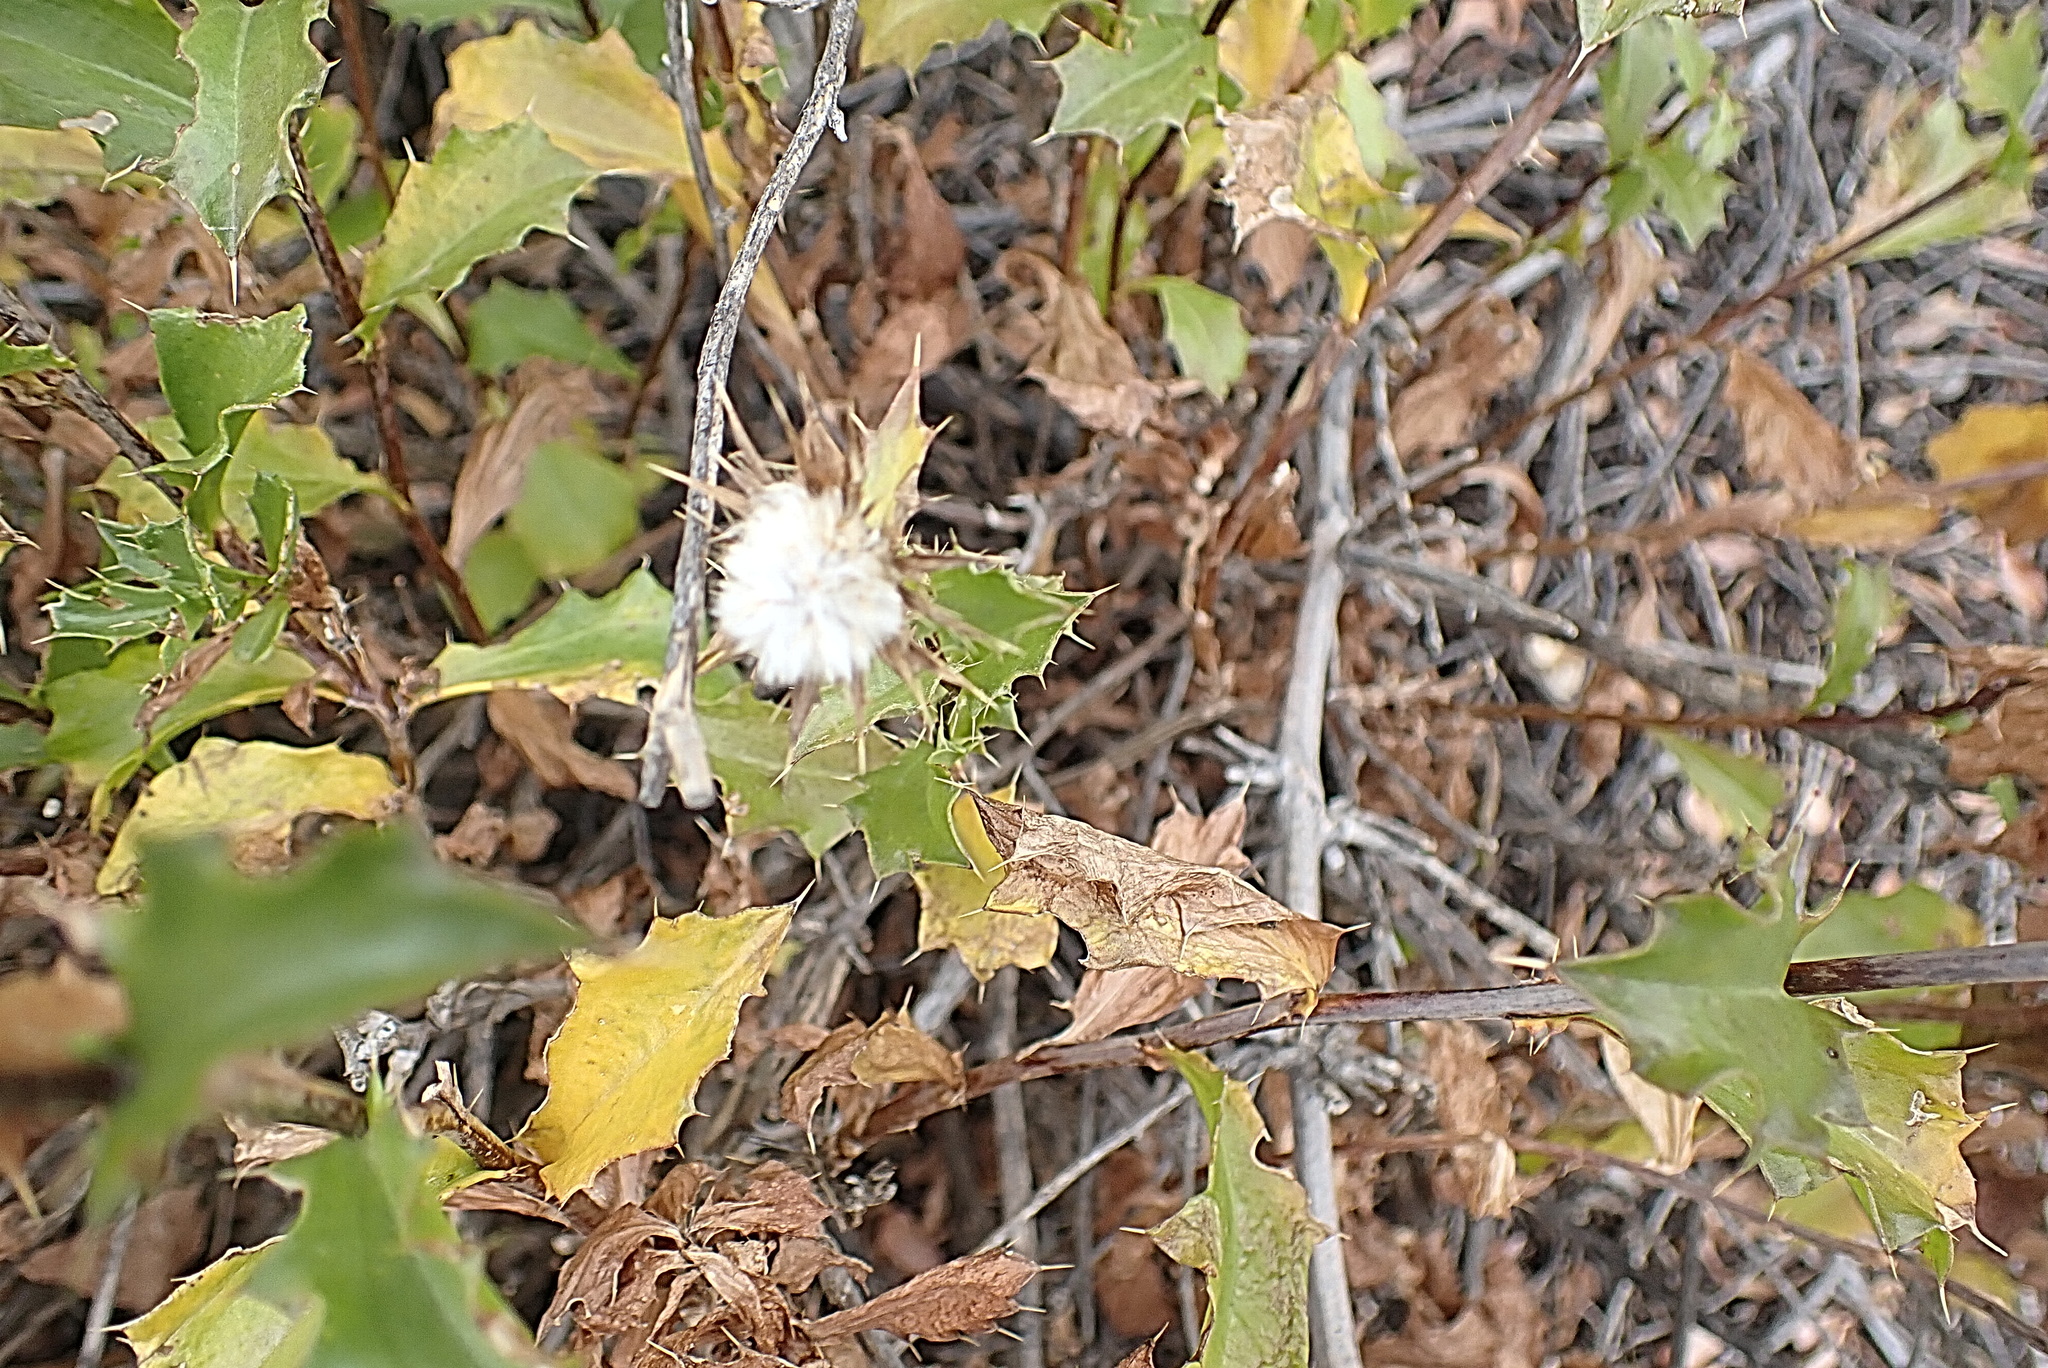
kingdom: Plantae
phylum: Tracheophyta
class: Magnoliopsida
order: Saxifragales
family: Crassulaceae
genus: Tylecodon
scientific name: Tylecodon paniculatus
